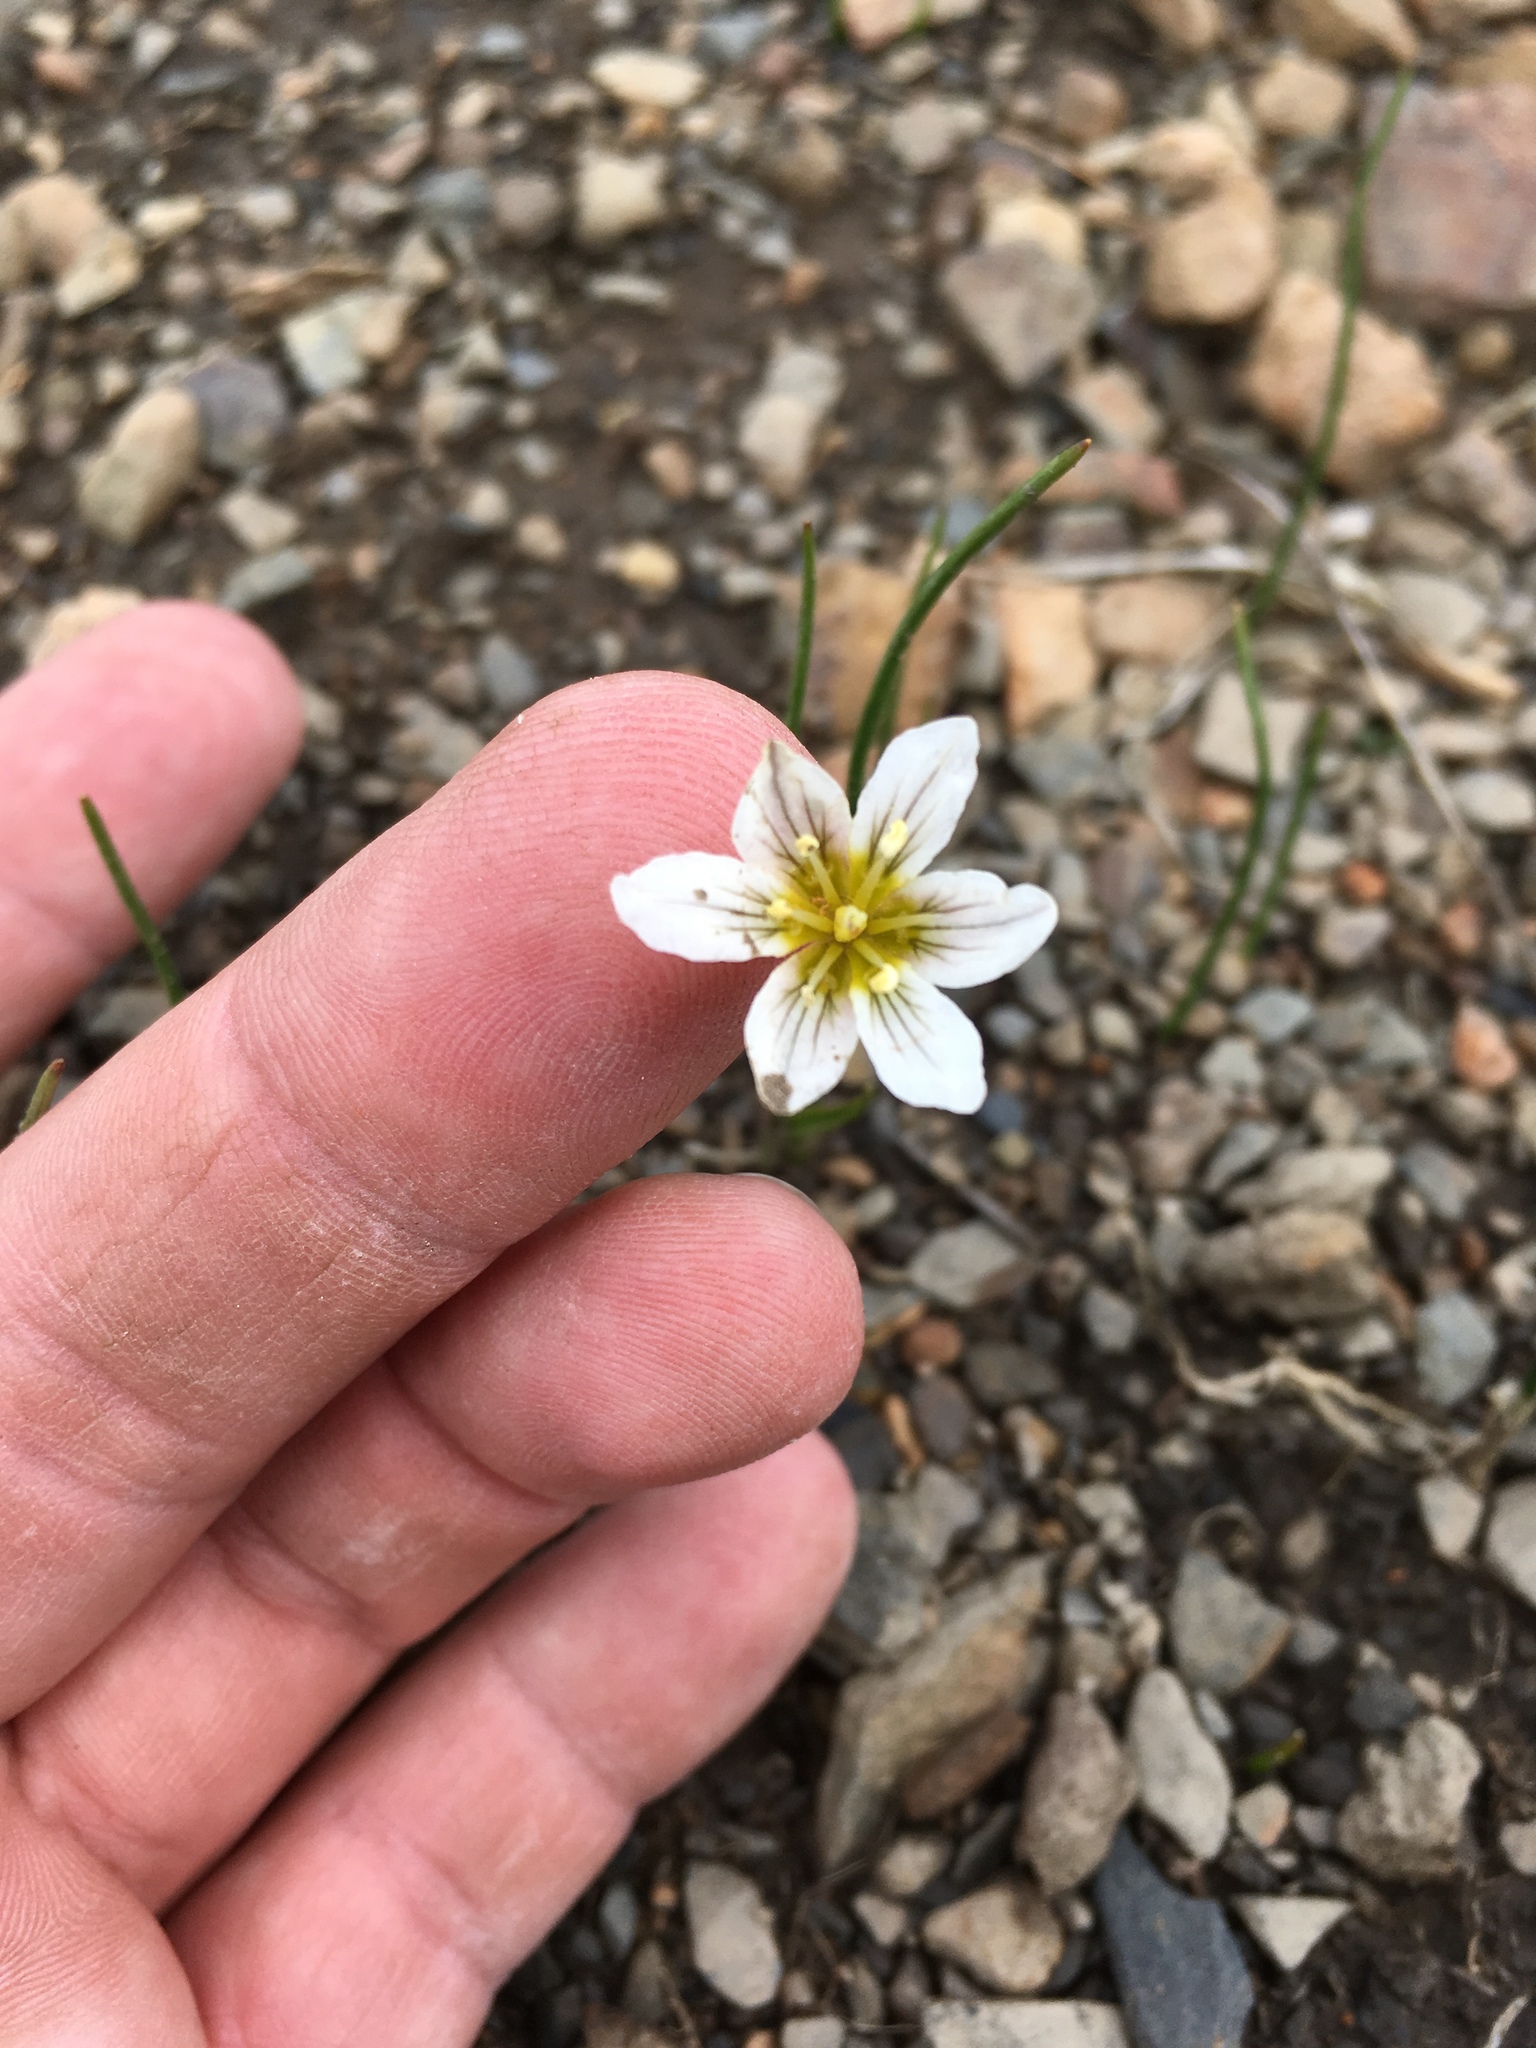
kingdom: Plantae
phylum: Tracheophyta
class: Liliopsida
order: Liliales
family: Liliaceae
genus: Gagea
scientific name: Gagea serotina
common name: Snowdon lily
